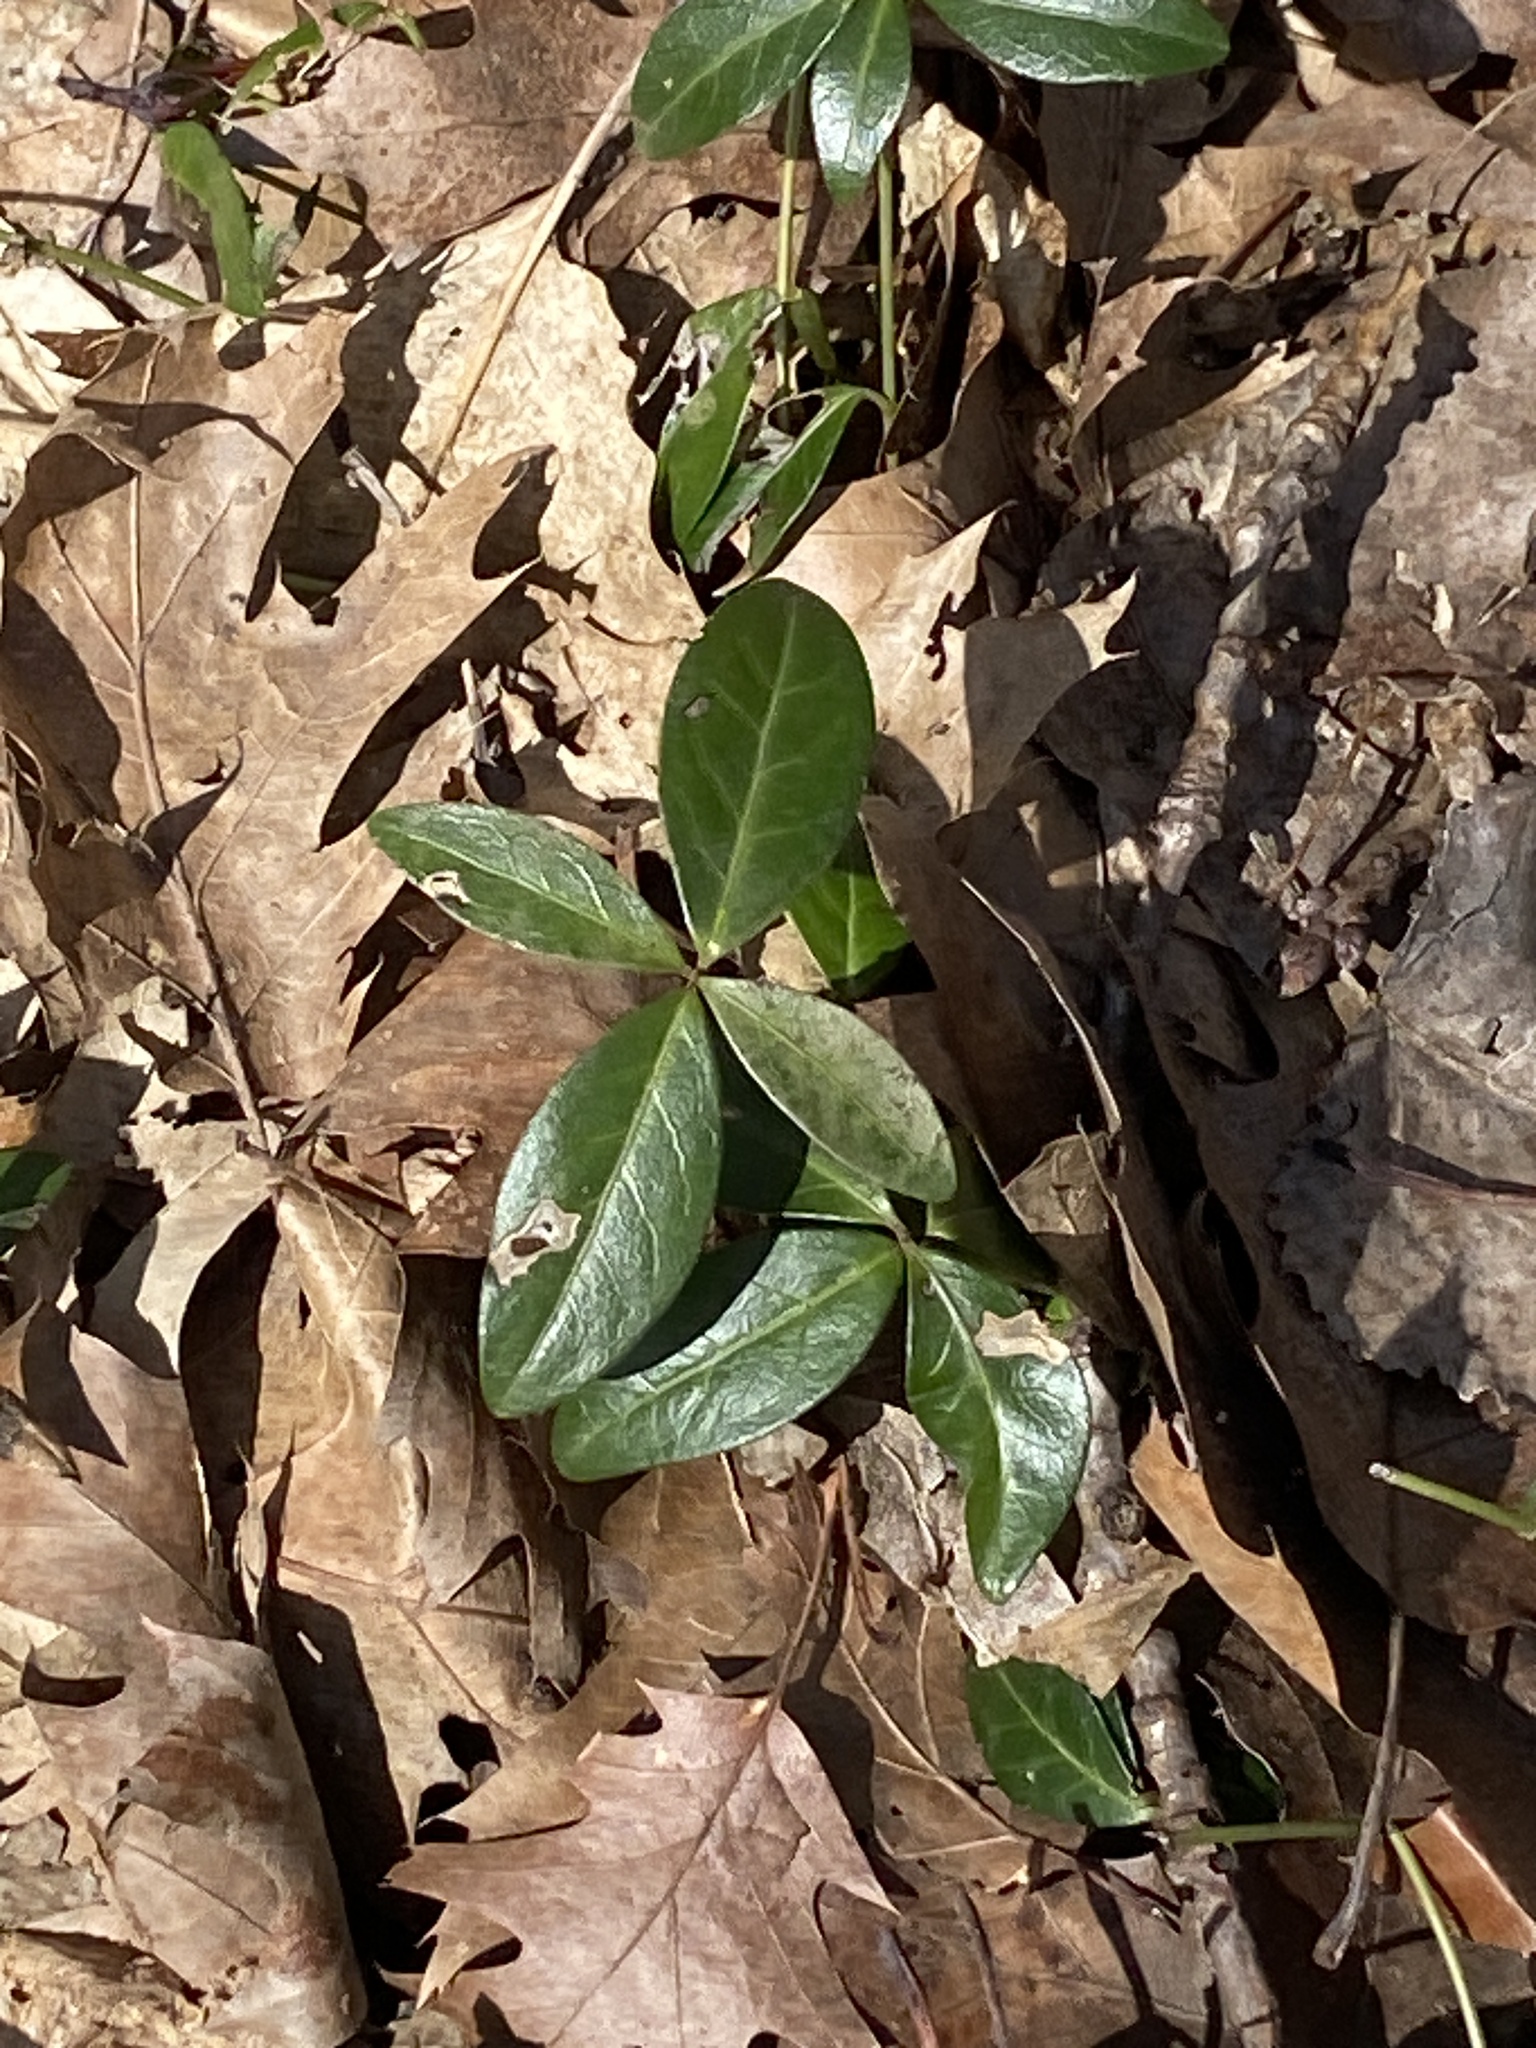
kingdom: Plantae
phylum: Tracheophyta
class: Magnoliopsida
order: Gentianales
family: Apocynaceae
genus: Vinca
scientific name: Vinca minor
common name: Lesser periwinkle
